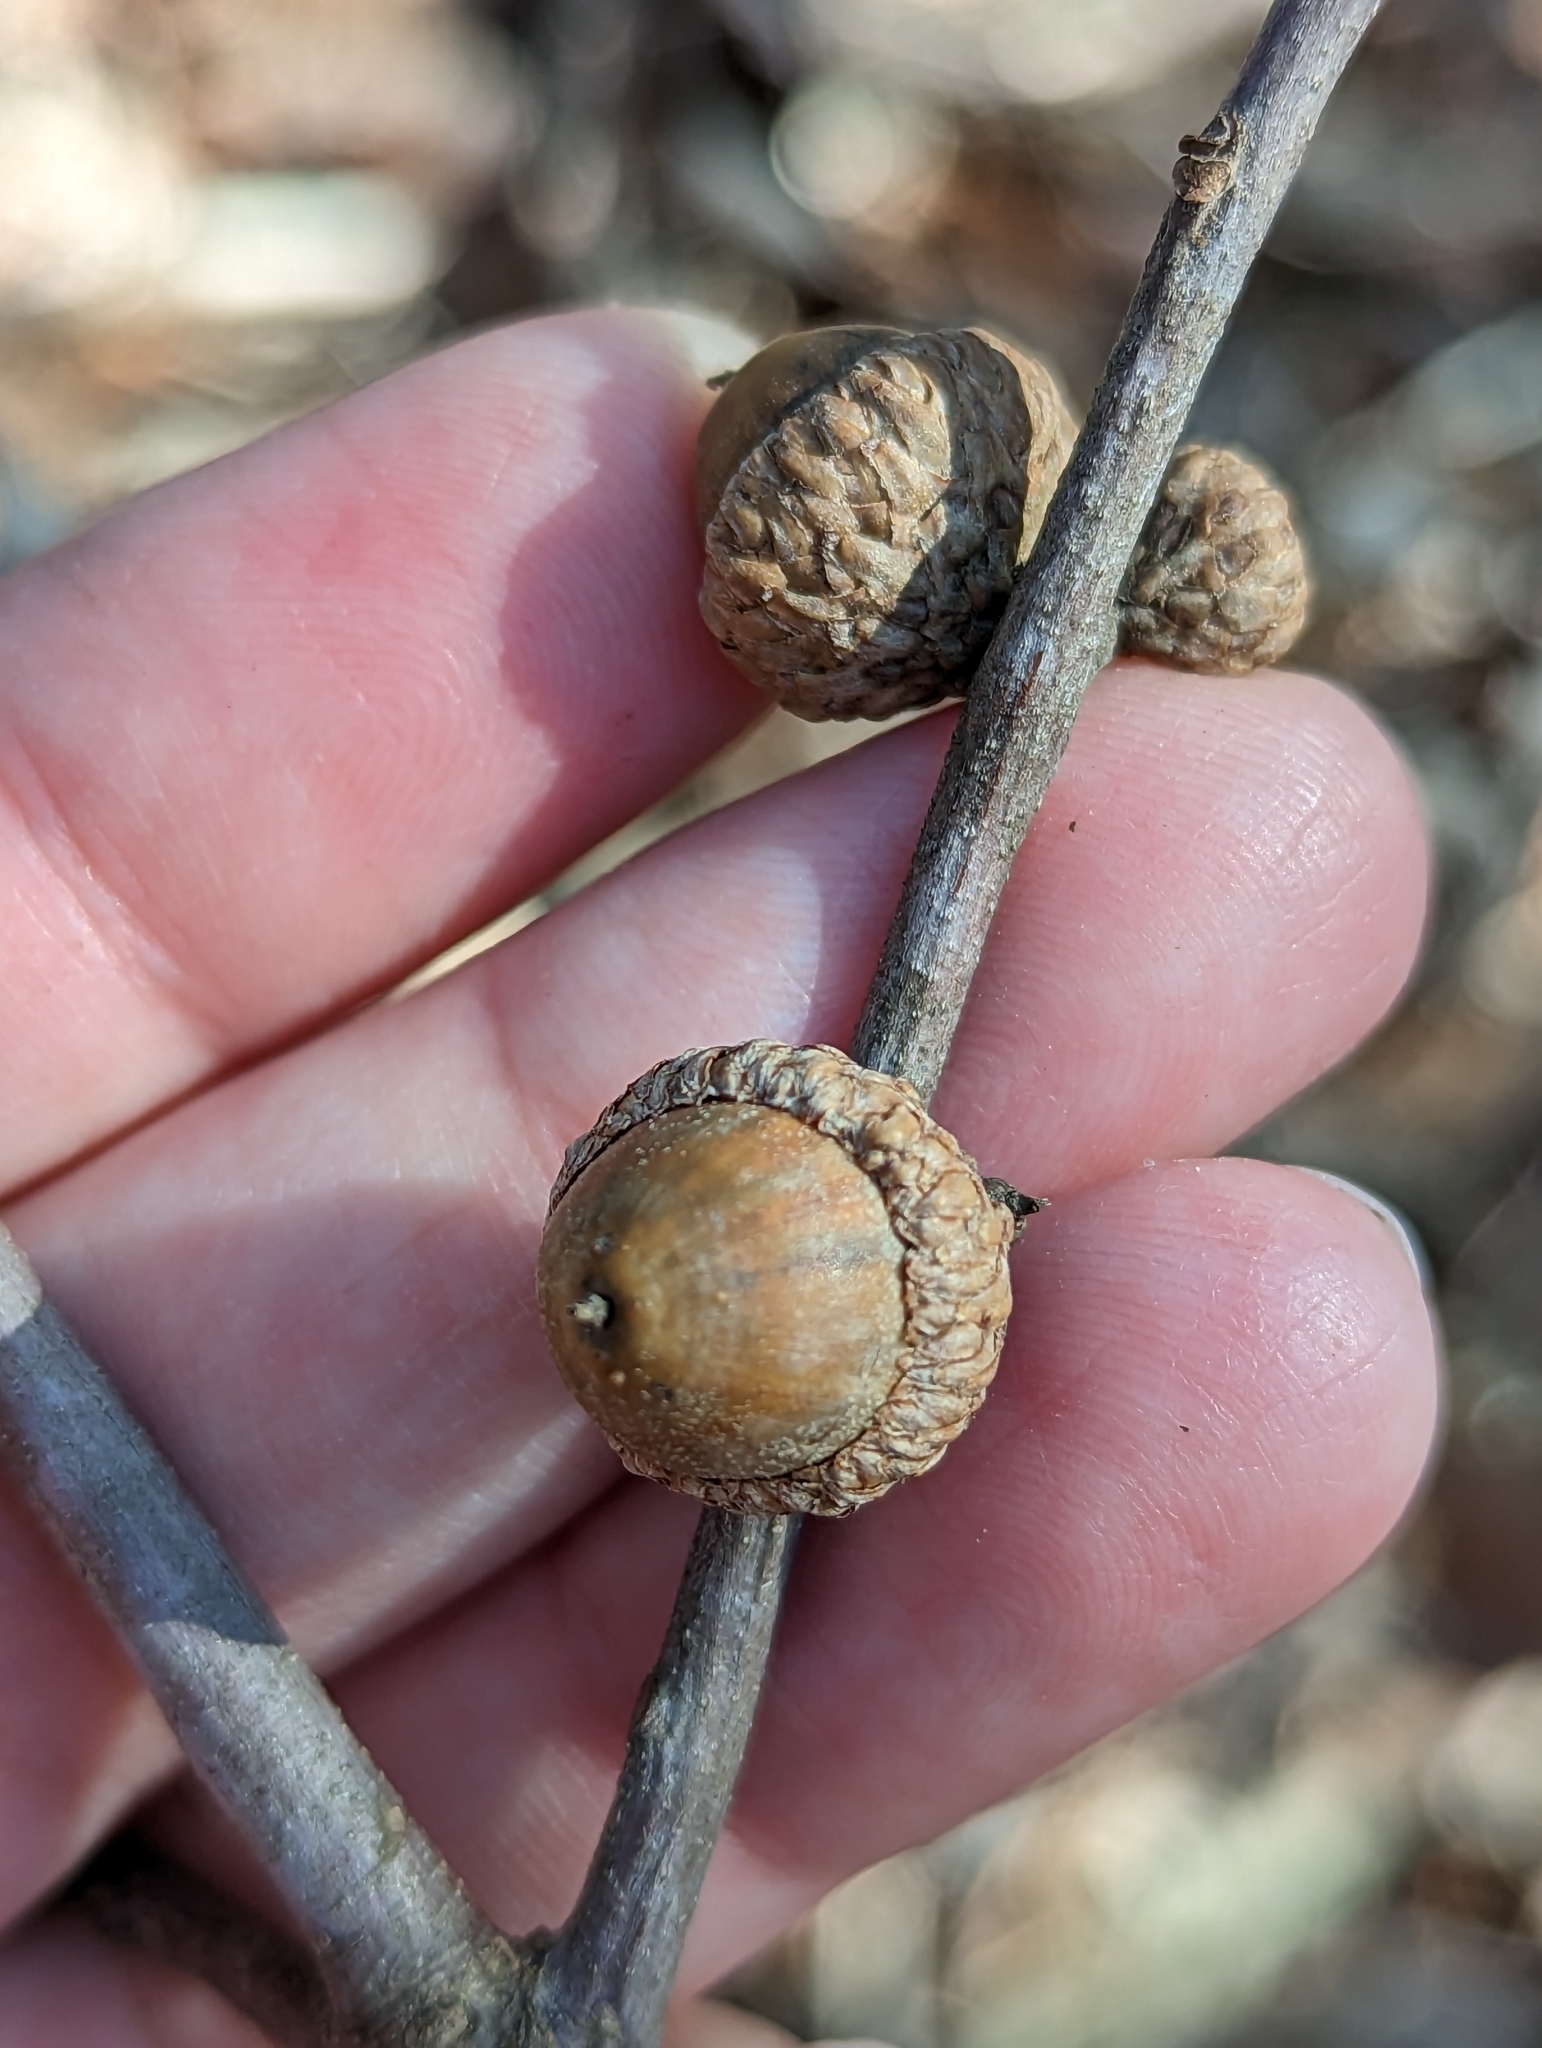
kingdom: Plantae
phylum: Tracheophyta
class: Magnoliopsida
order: Fagales
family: Fagaceae
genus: Quercus
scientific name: Quercus ilicifolia
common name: Bear oak
